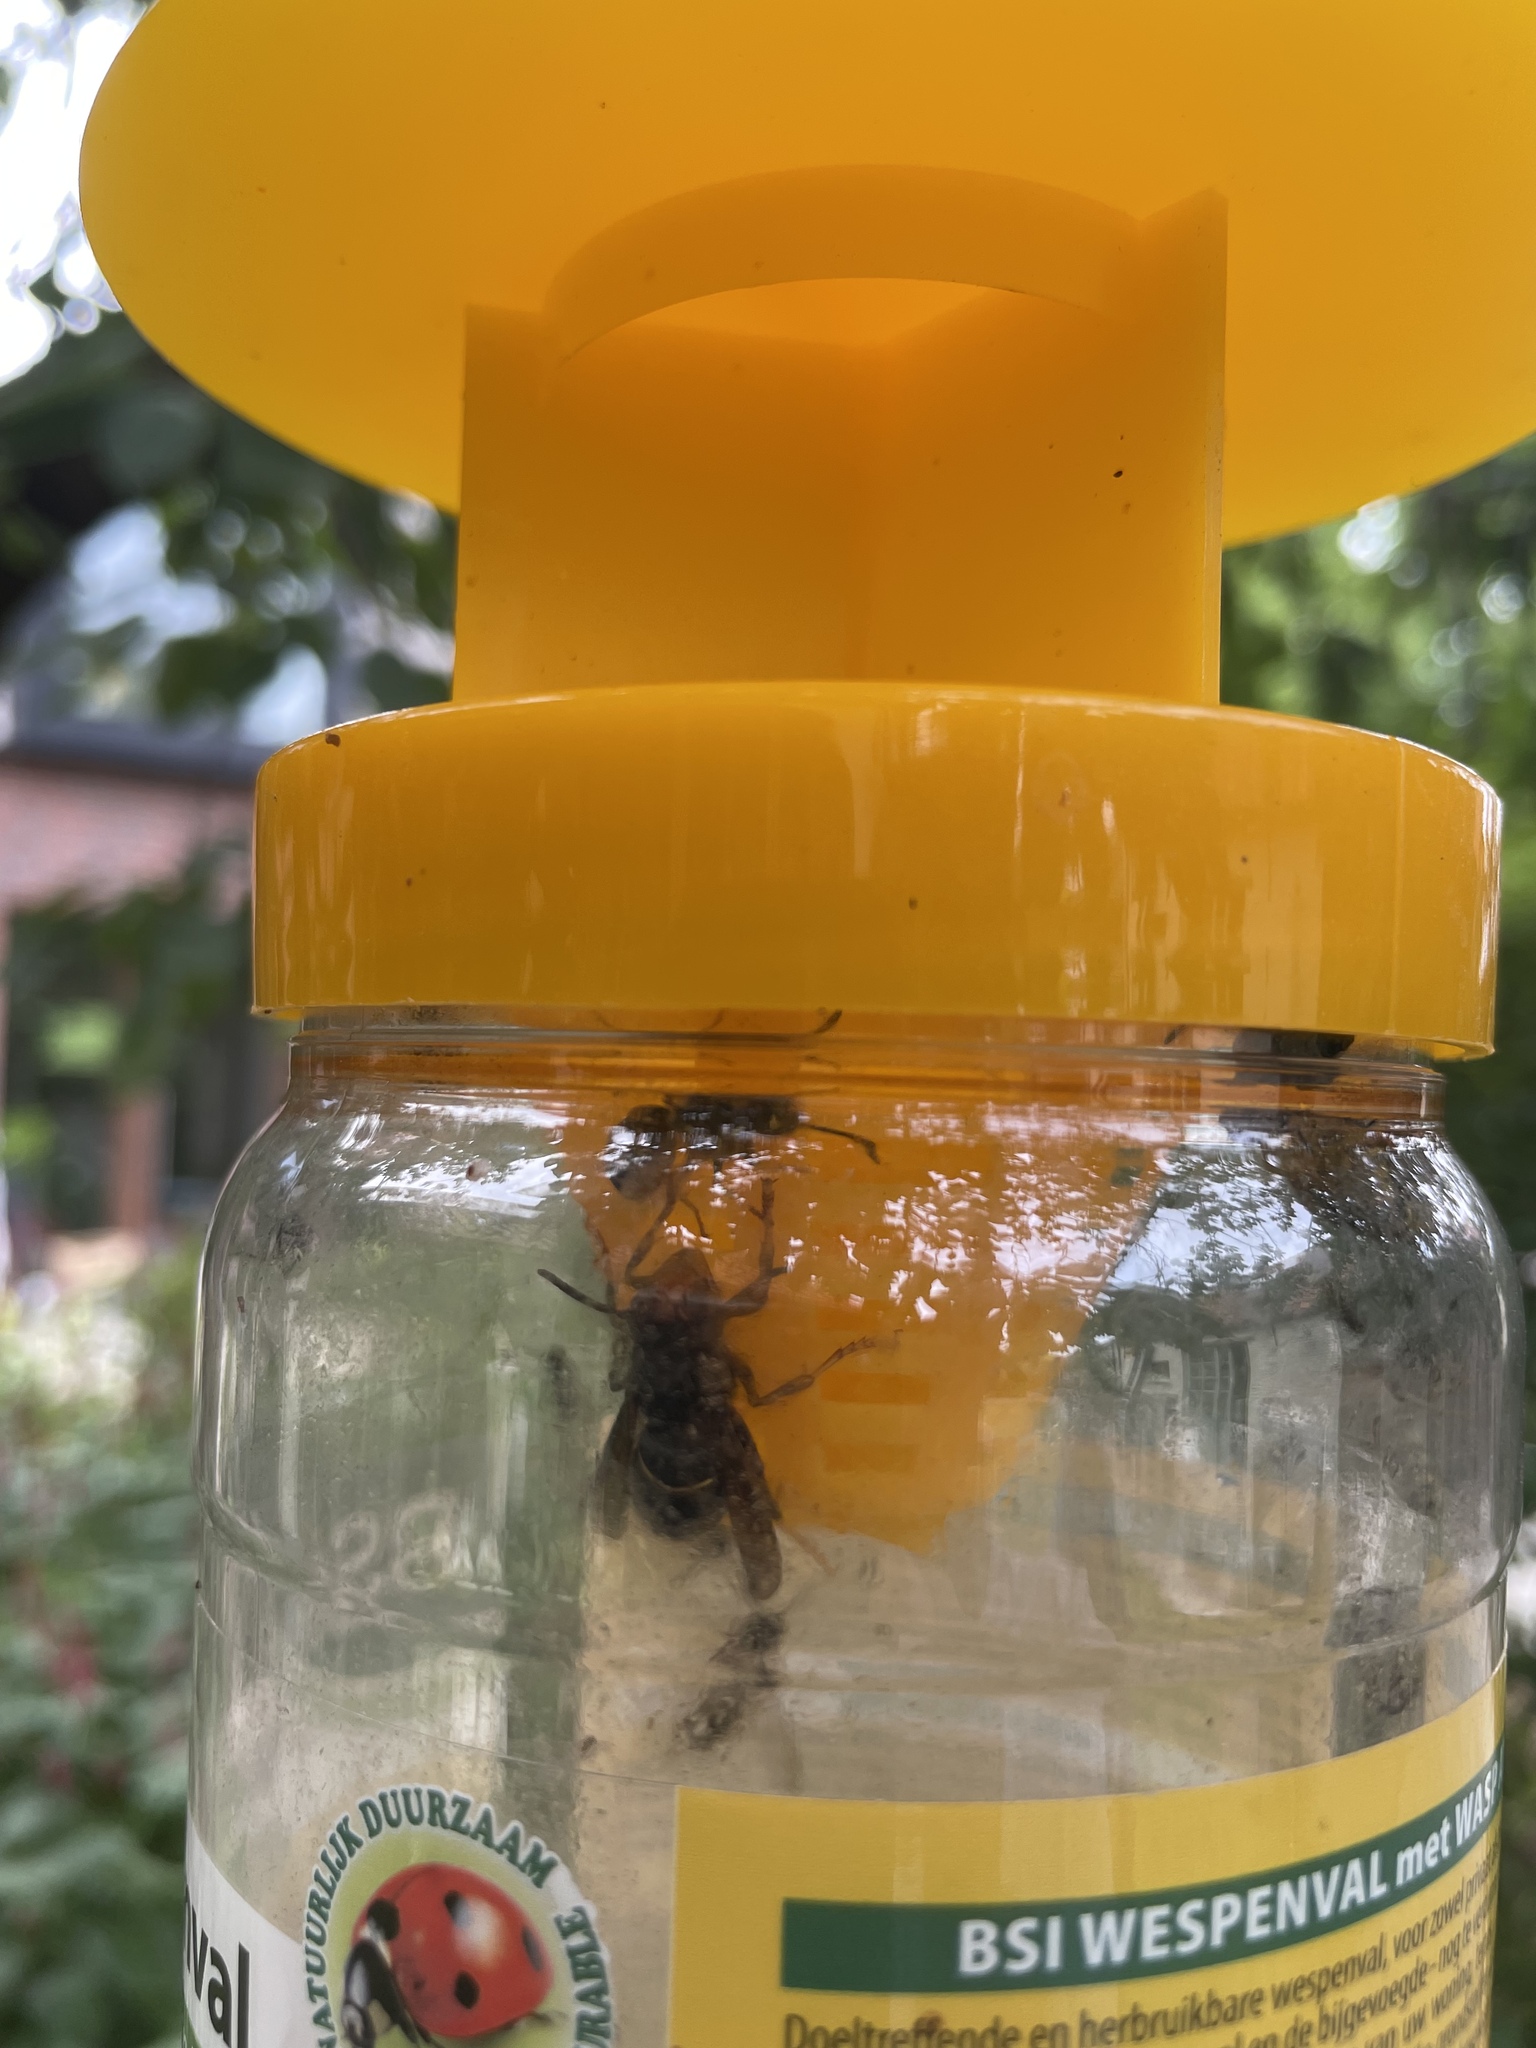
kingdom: Animalia
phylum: Arthropoda
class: Insecta
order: Hymenoptera
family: Vespidae
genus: Vespa
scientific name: Vespa velutina
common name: Asian hornet
